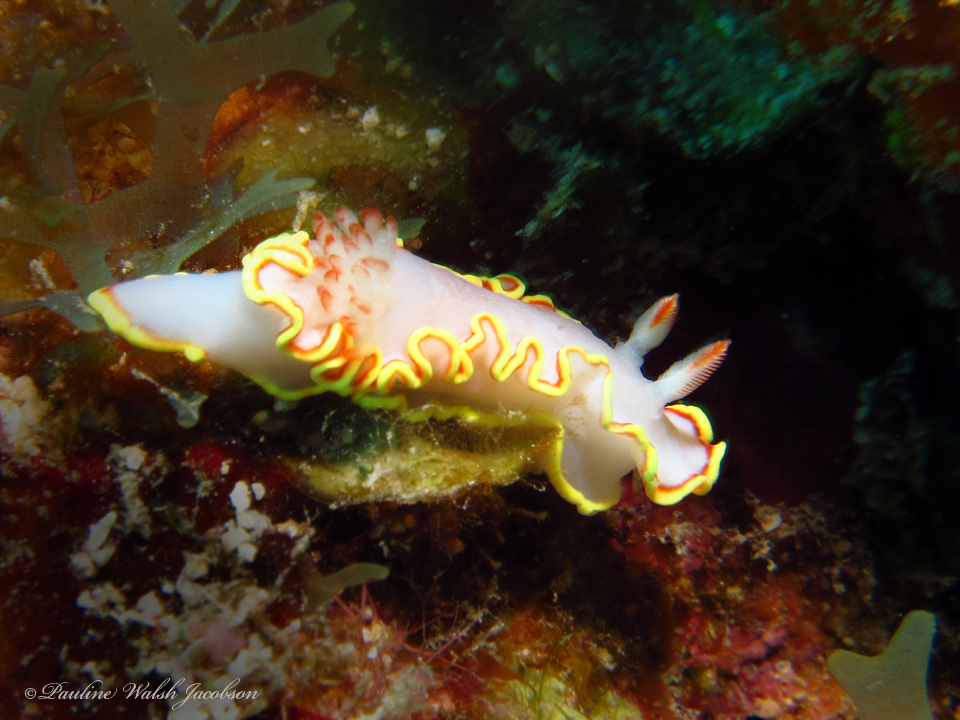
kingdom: Animalia
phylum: Mollusca
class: Gastropoda
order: Nudibranchia
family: Chromodorididae
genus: Chromolaichma
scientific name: Chromolaichma sedna
